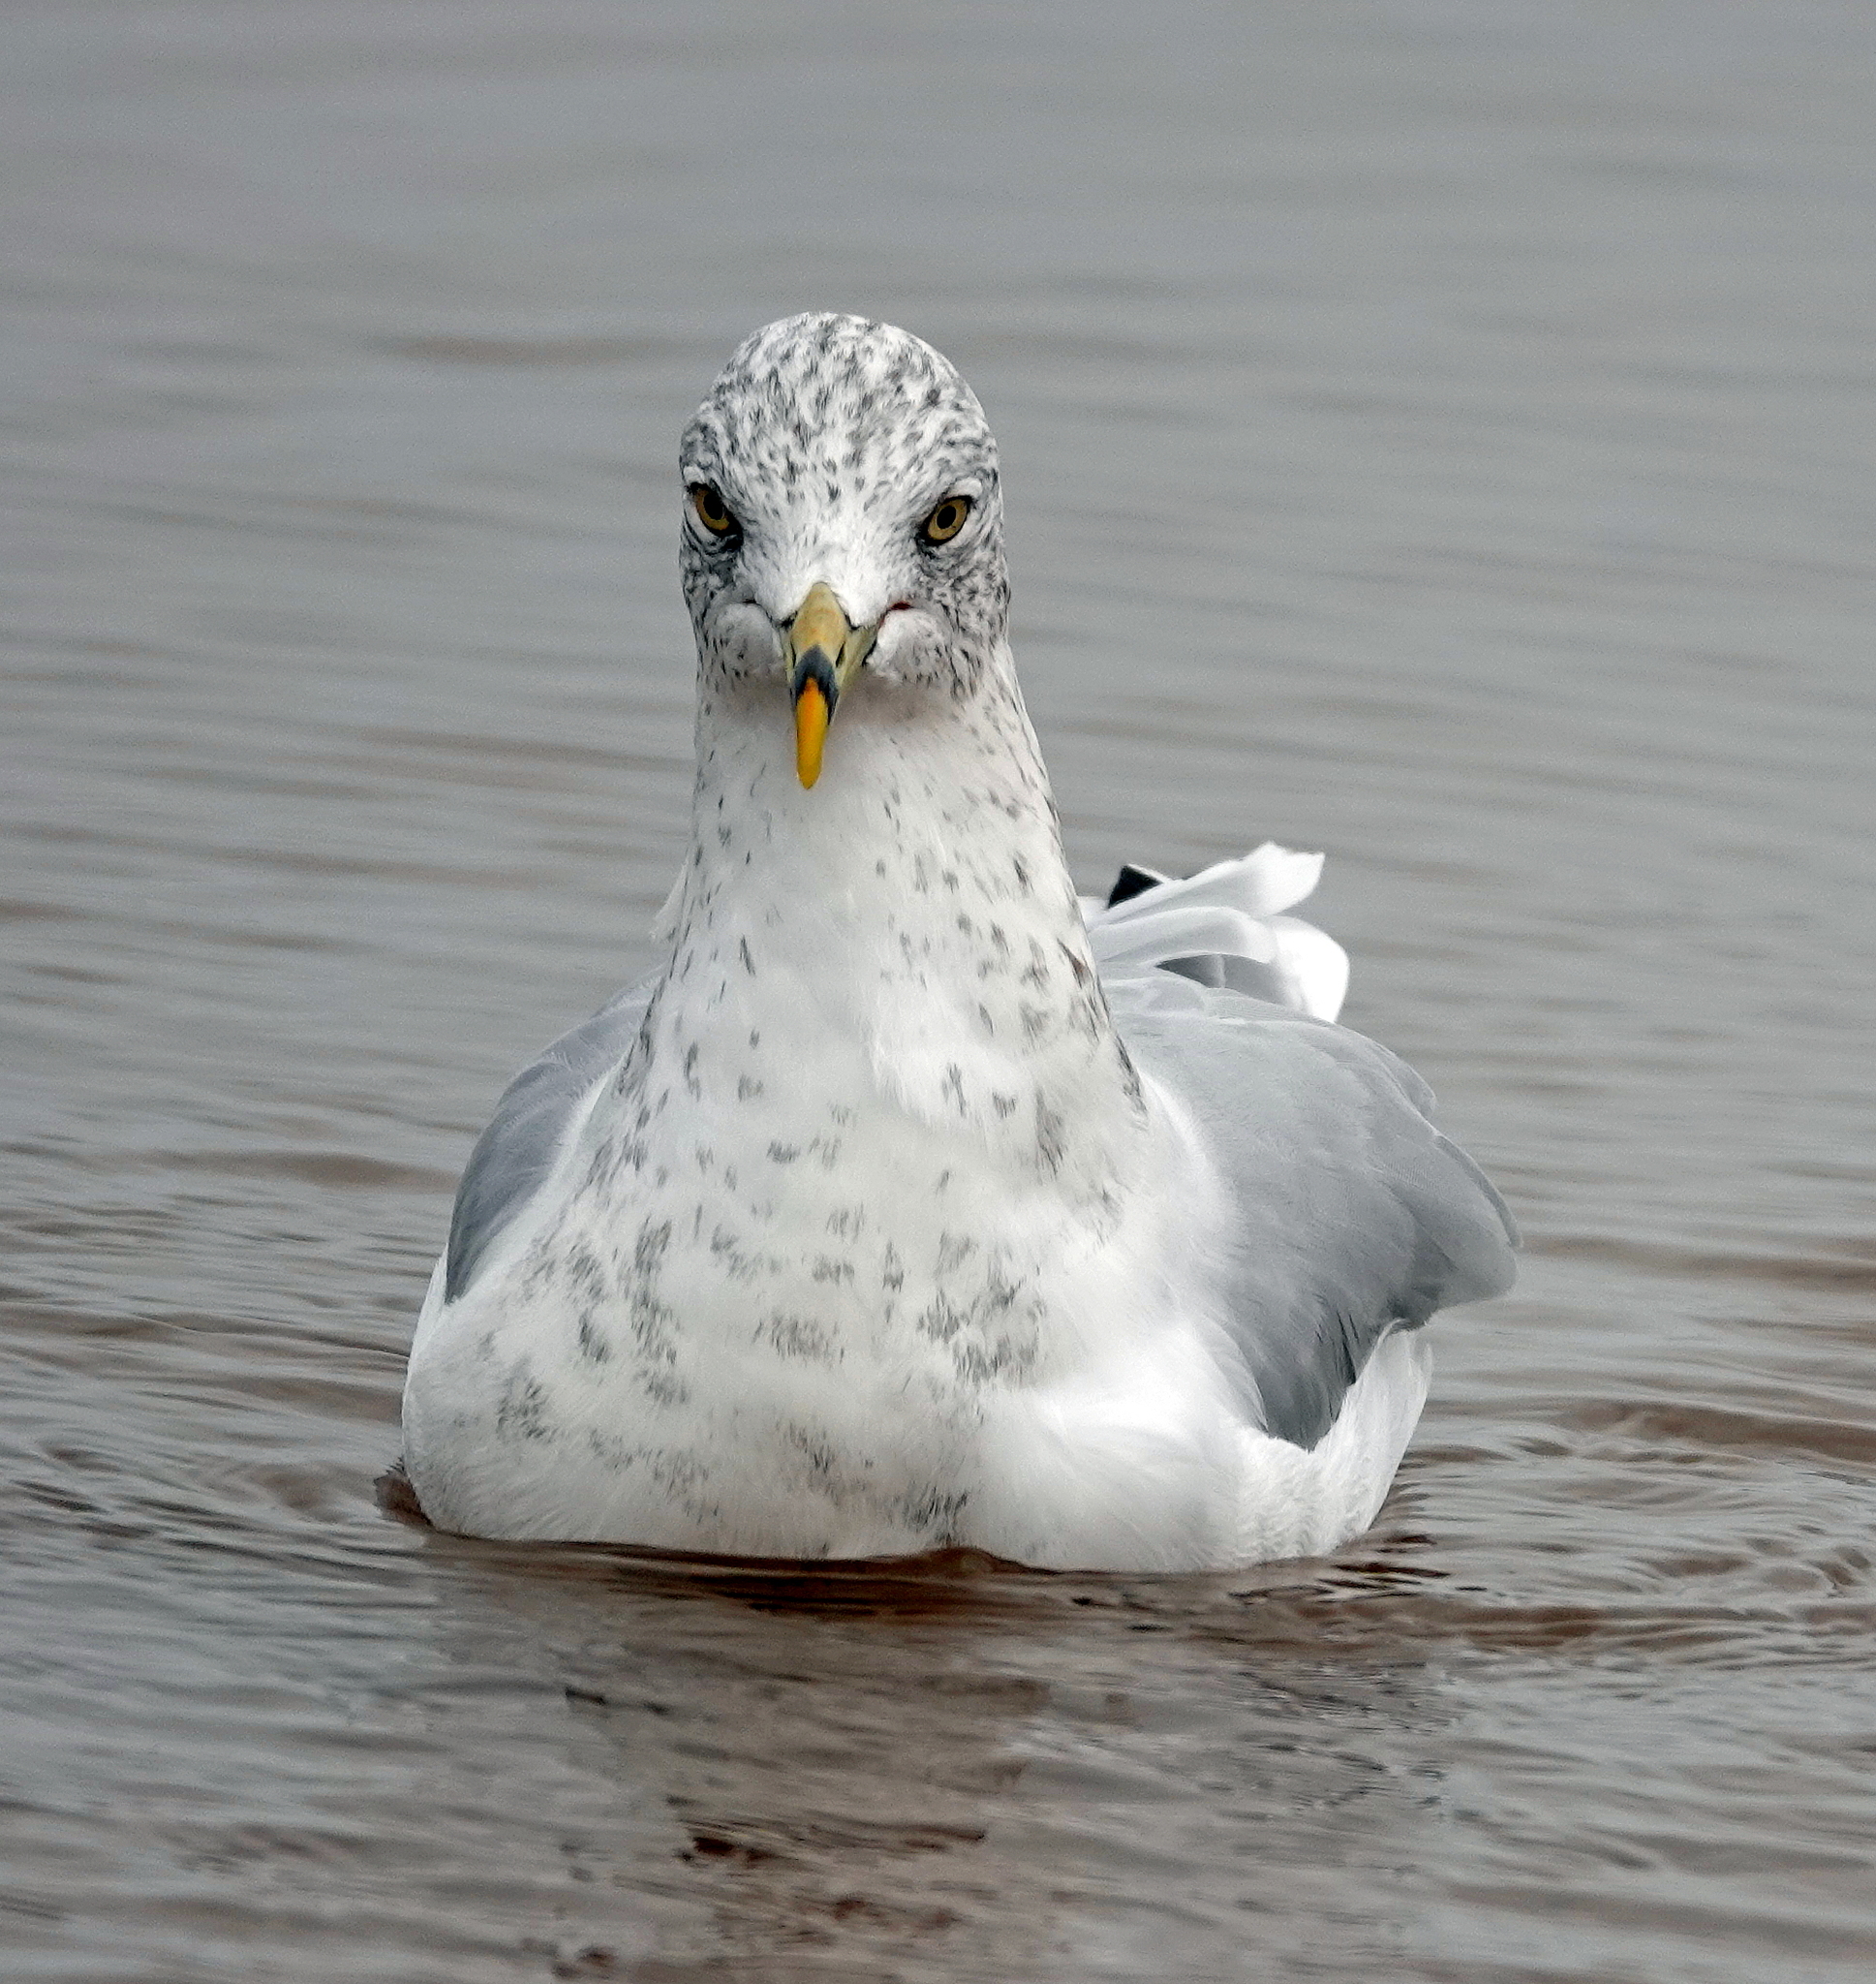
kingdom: Animalia
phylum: Chordata
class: Aves
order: Charadriiformes
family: Laridae
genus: Larus
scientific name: Larus delawarensis
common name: Ring-billed gull
